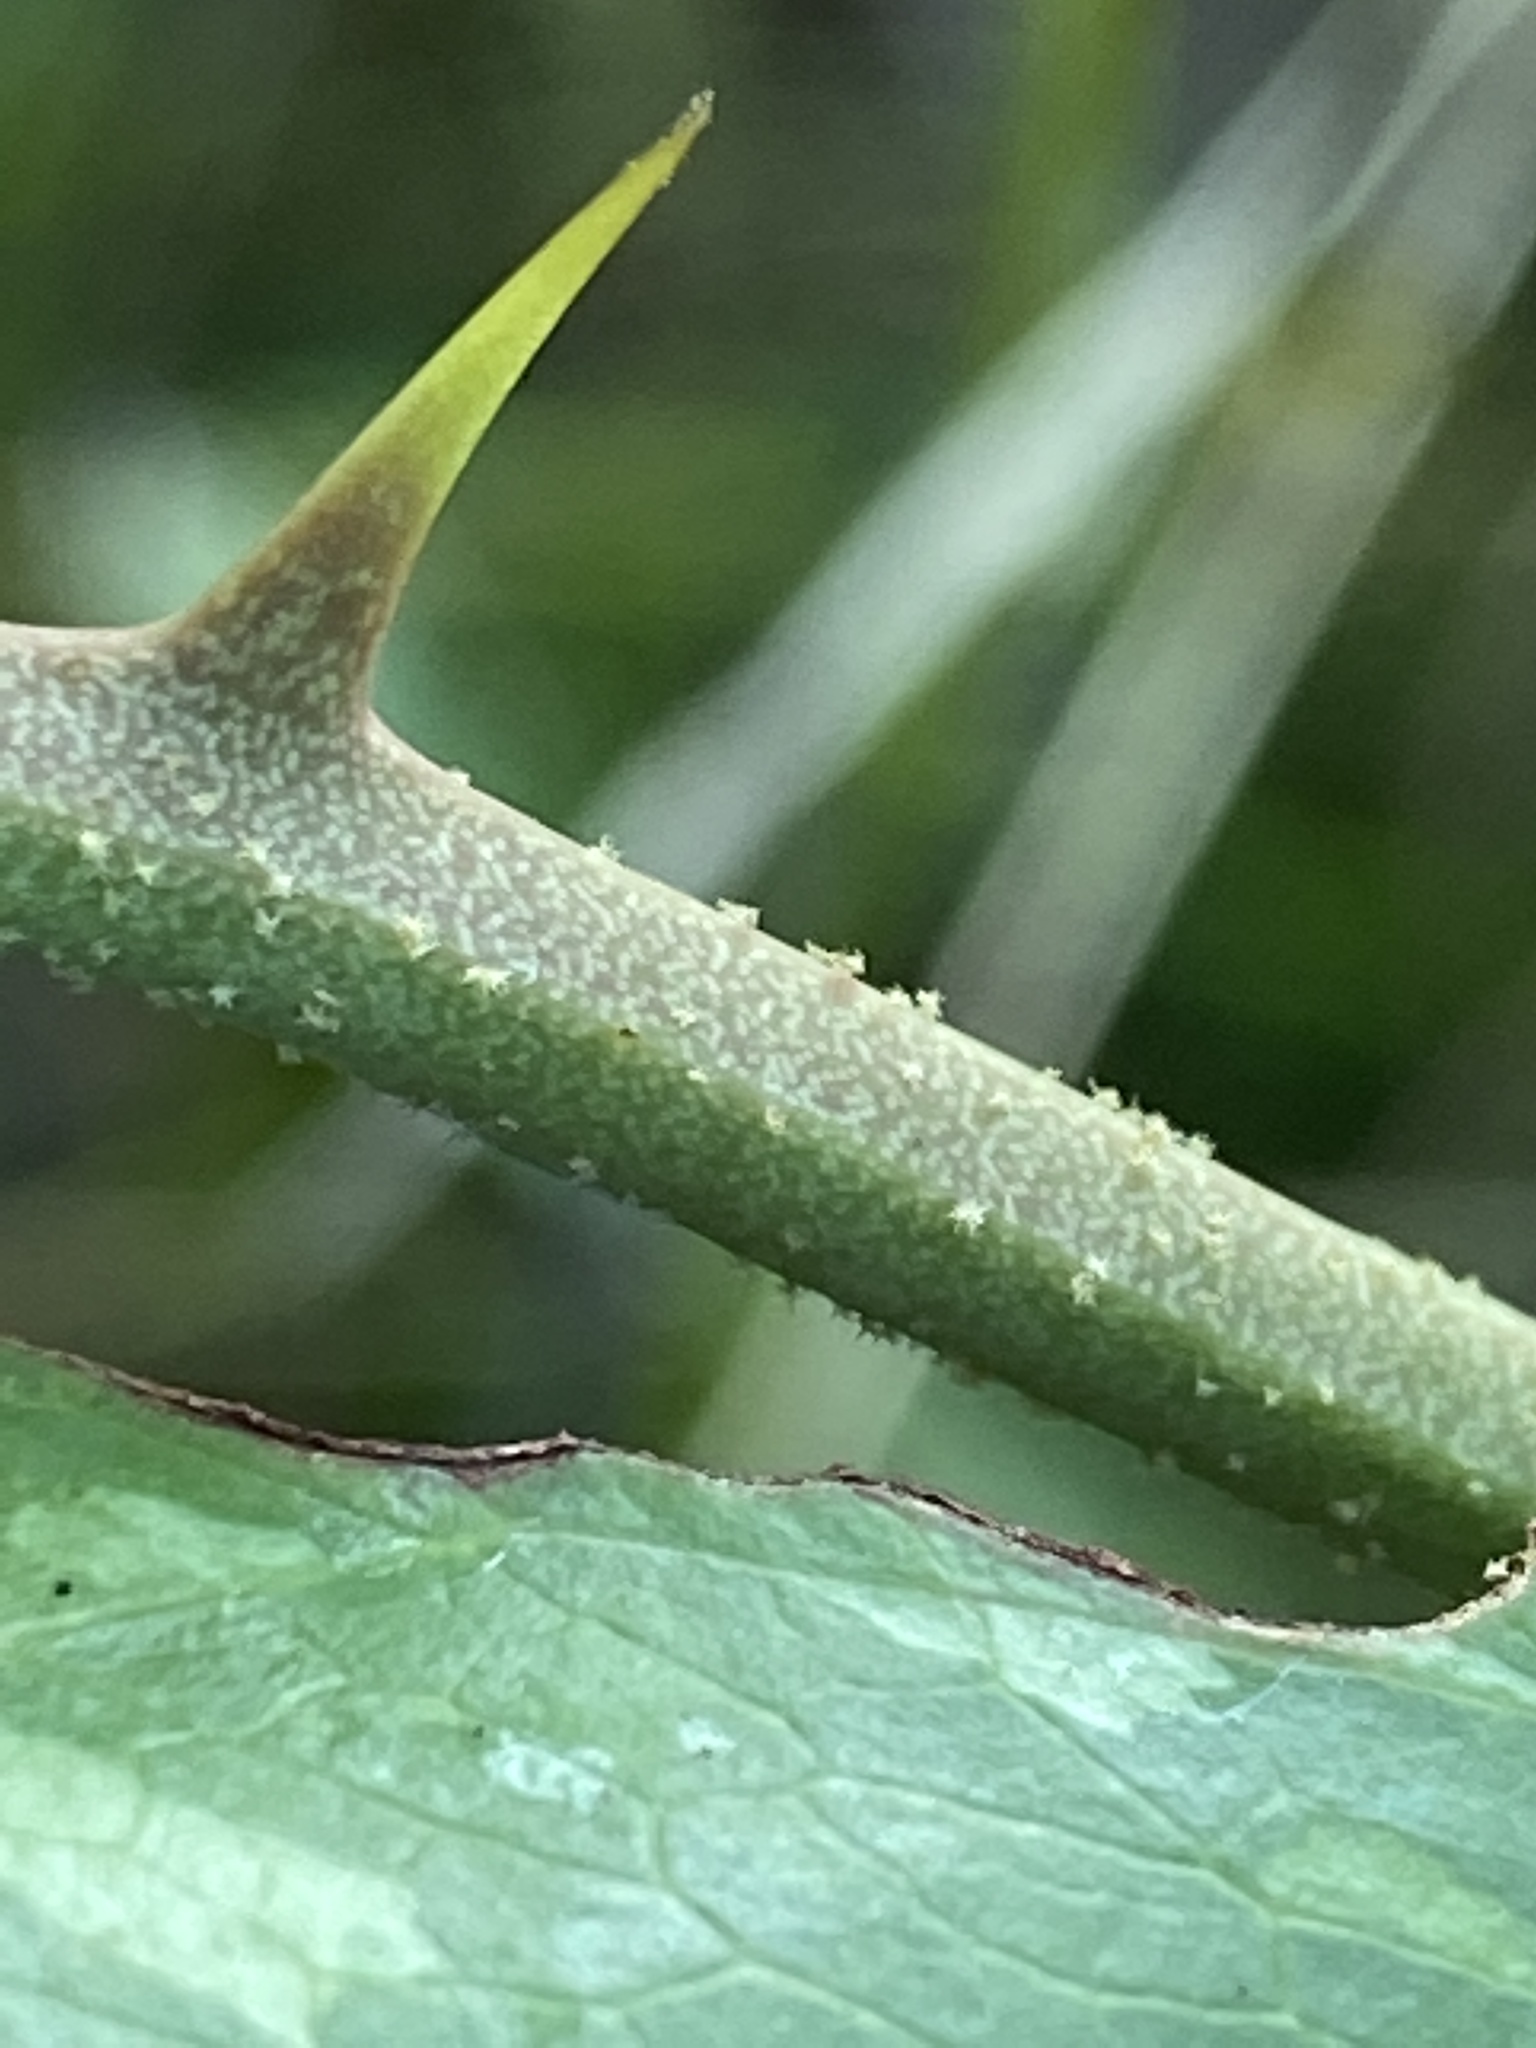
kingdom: Plantae
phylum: Tracheophyta
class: Liliopsida
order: Liliales
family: Smilacaceae
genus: Smilax
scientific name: Smilax bona-nox
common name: Catbrier
